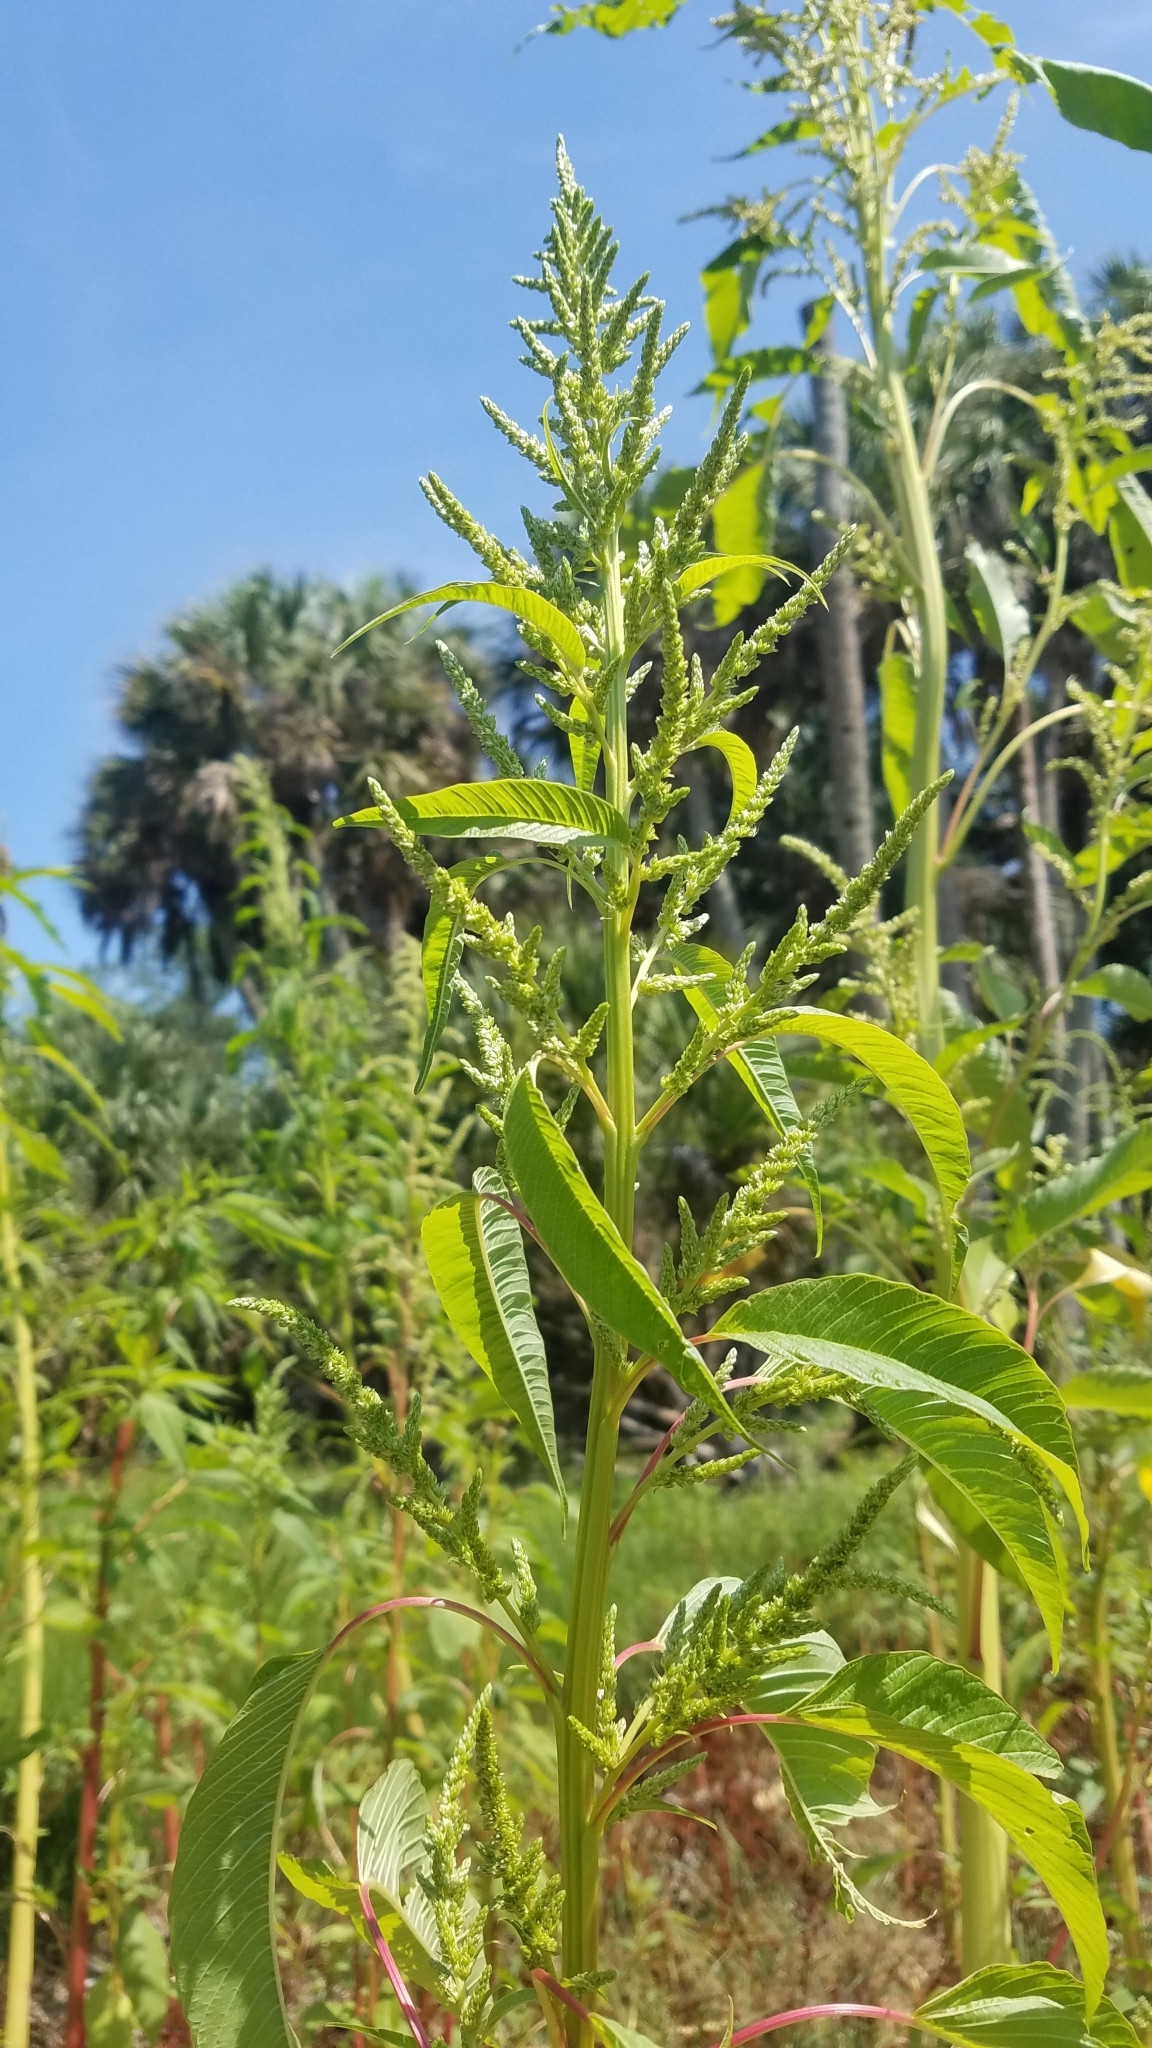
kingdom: Plantae
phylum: Tracheophyta
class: Magnoliopsida
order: Caryophyllales
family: Amaranthaceae
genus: Amaranthus
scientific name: Amaranthus australis
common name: Southern amaranth
